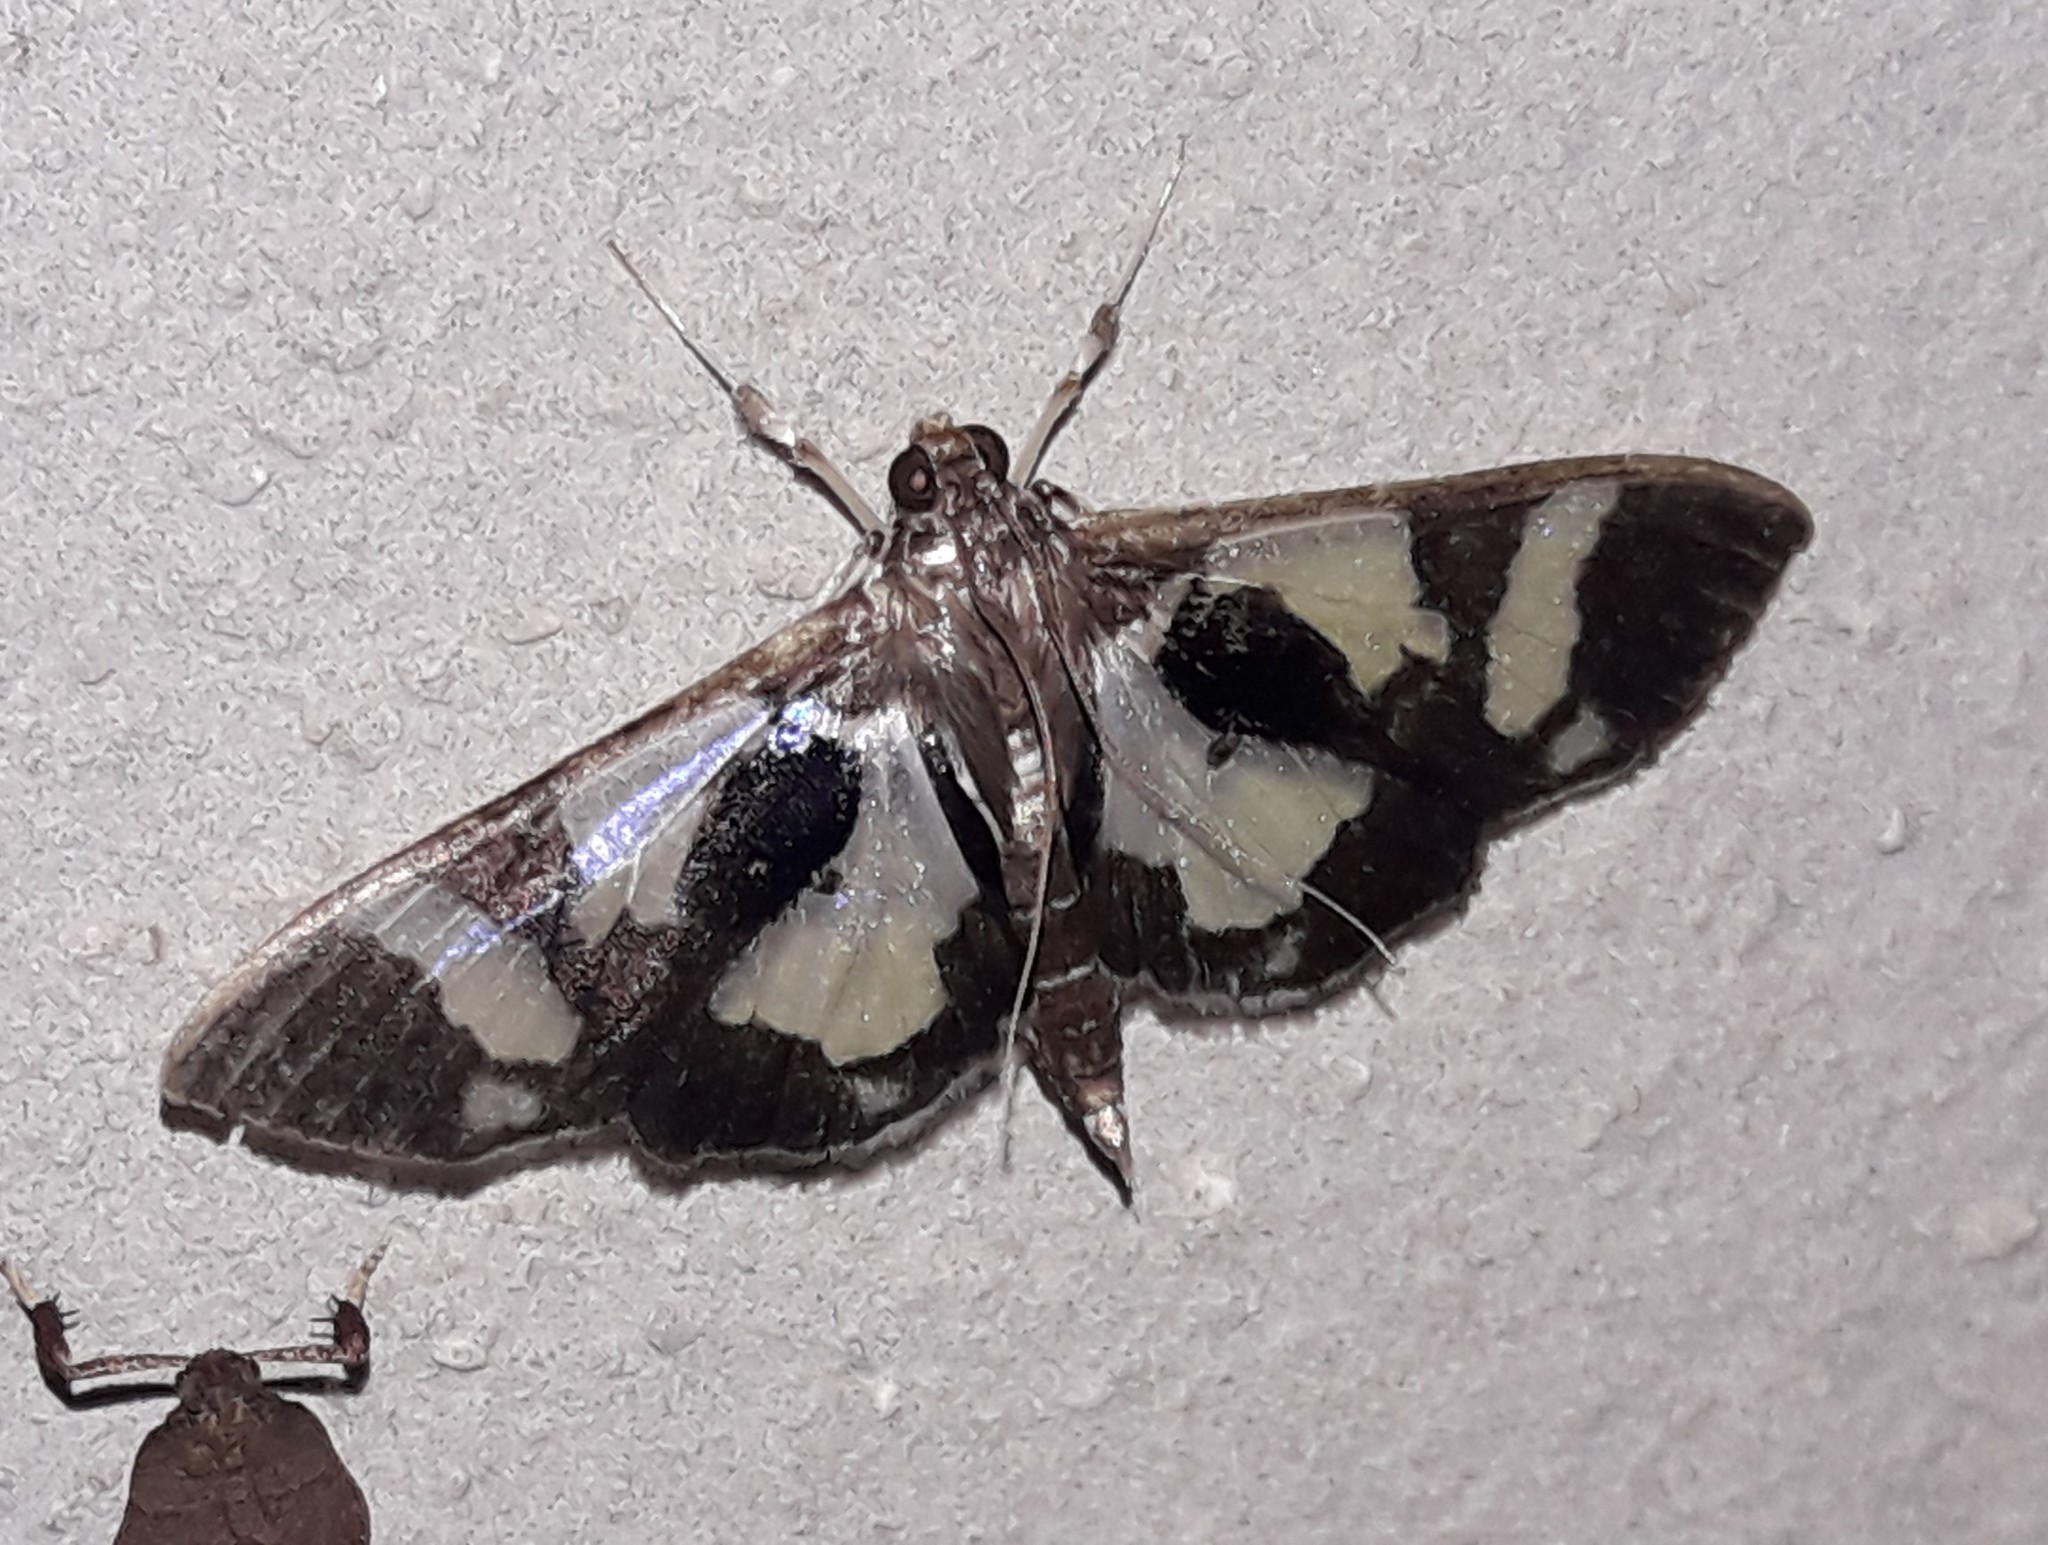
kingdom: Animalia
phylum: Arthropoda
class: Insecta
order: Lepidoptera
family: Crambidae
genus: Desmia
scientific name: Desmia bajulalis
